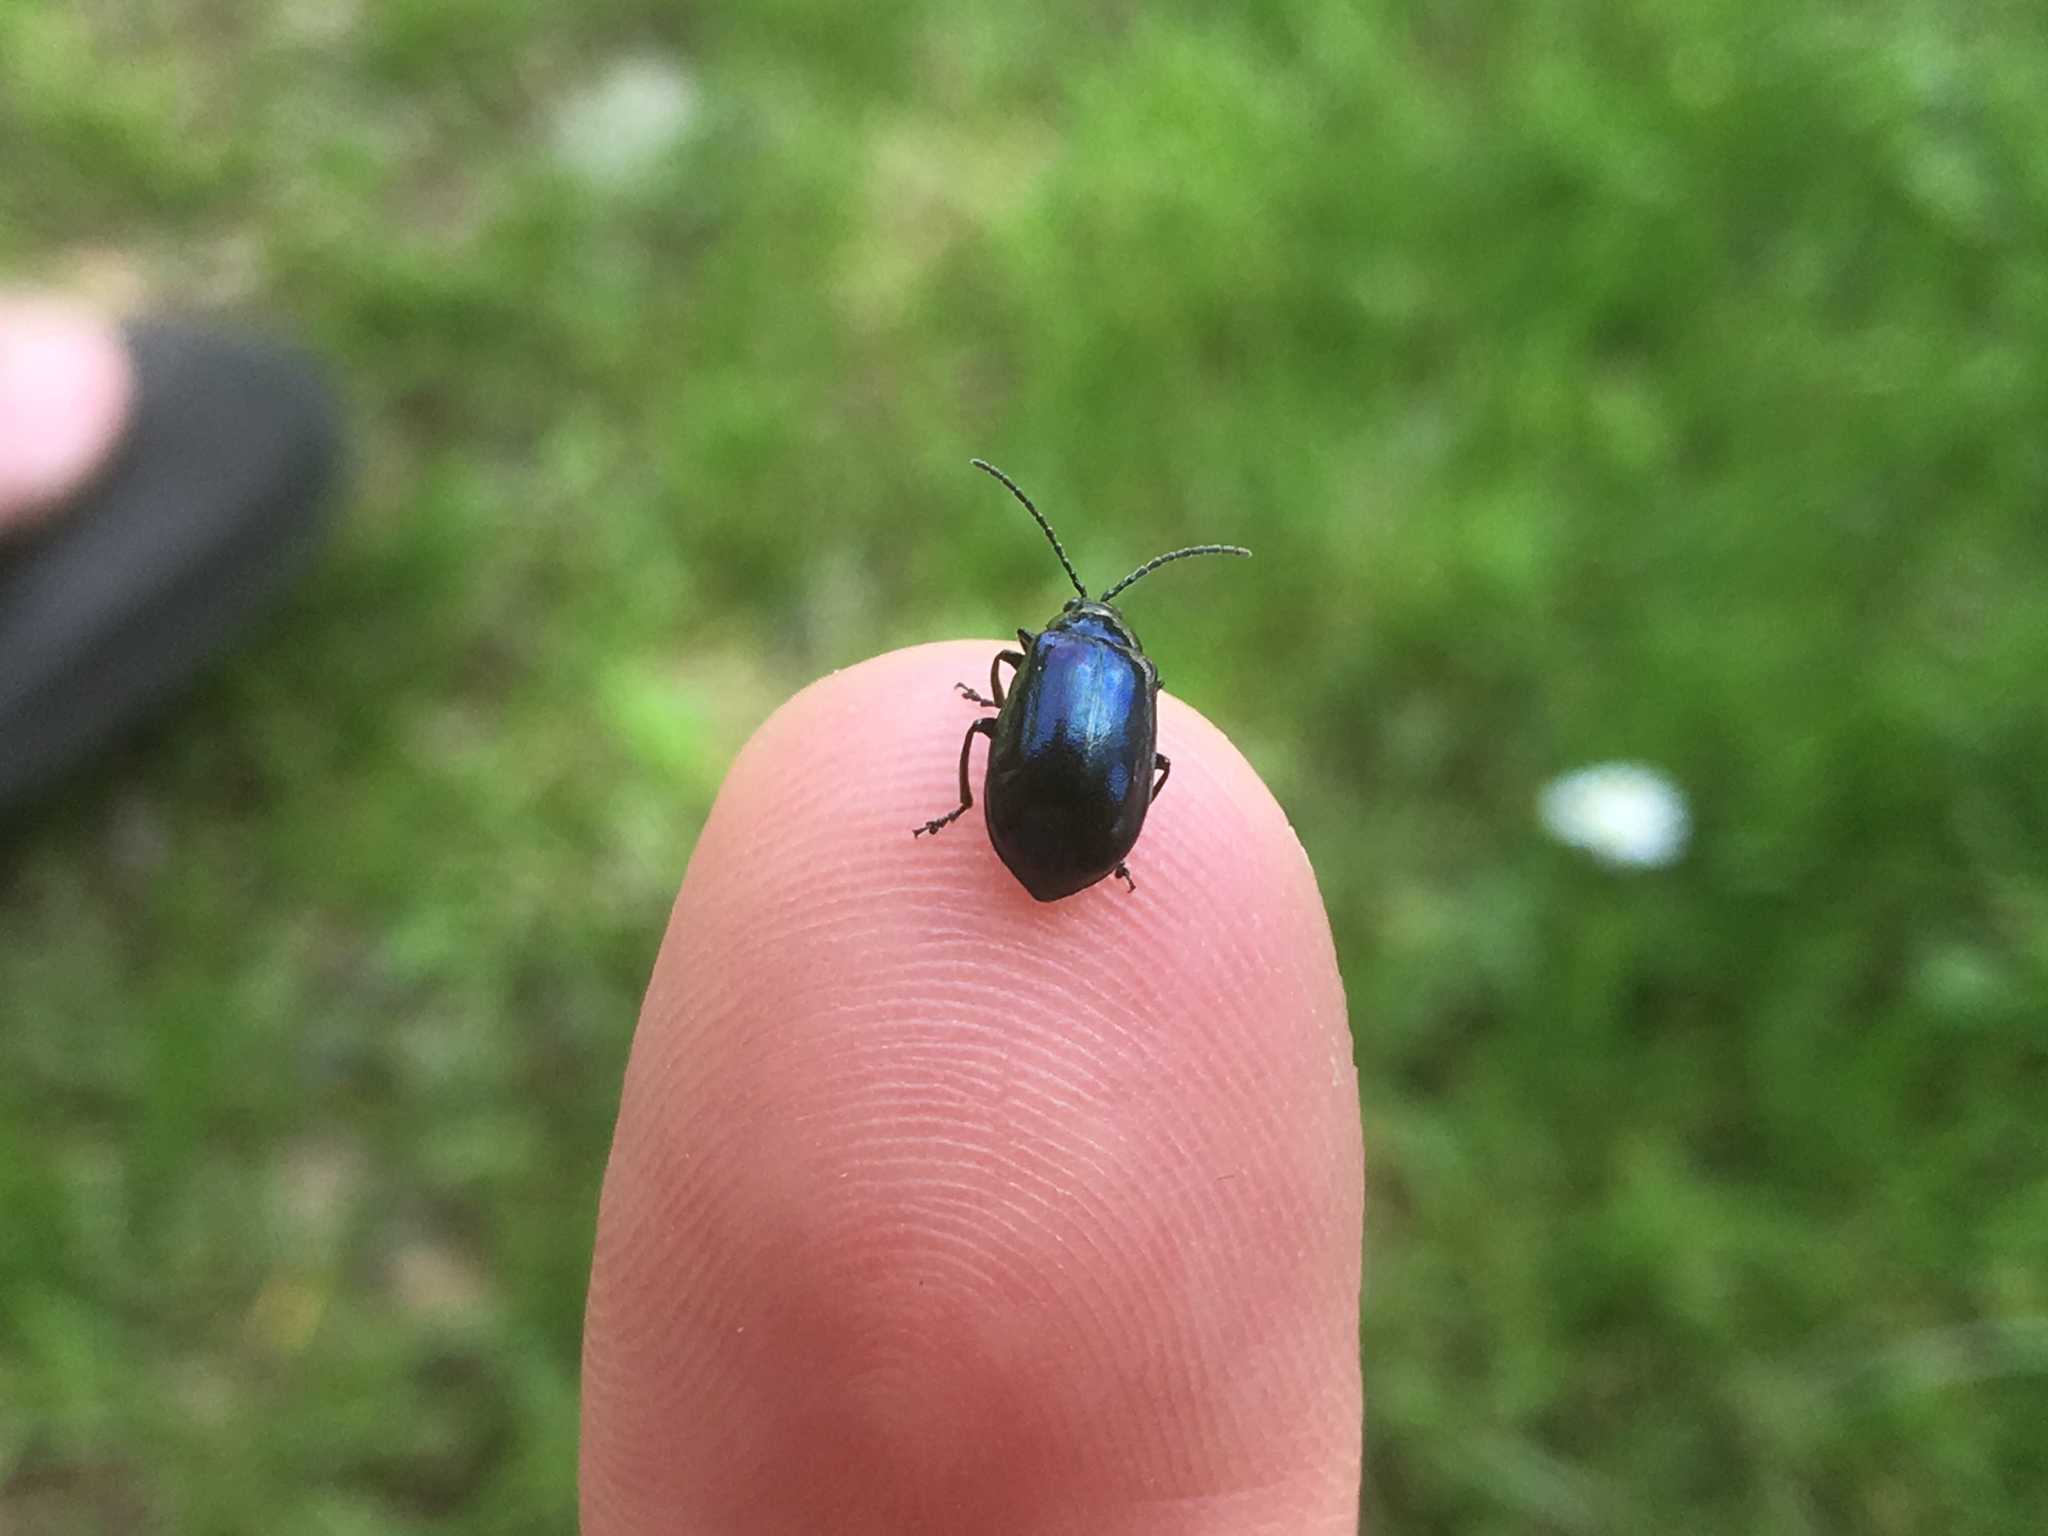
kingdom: Animalia
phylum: Arthropoda
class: Insecta
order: Coleoptera
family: Chrysomelidae
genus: Agelastica
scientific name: Agelastica alni
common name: Alder leaf beetle
